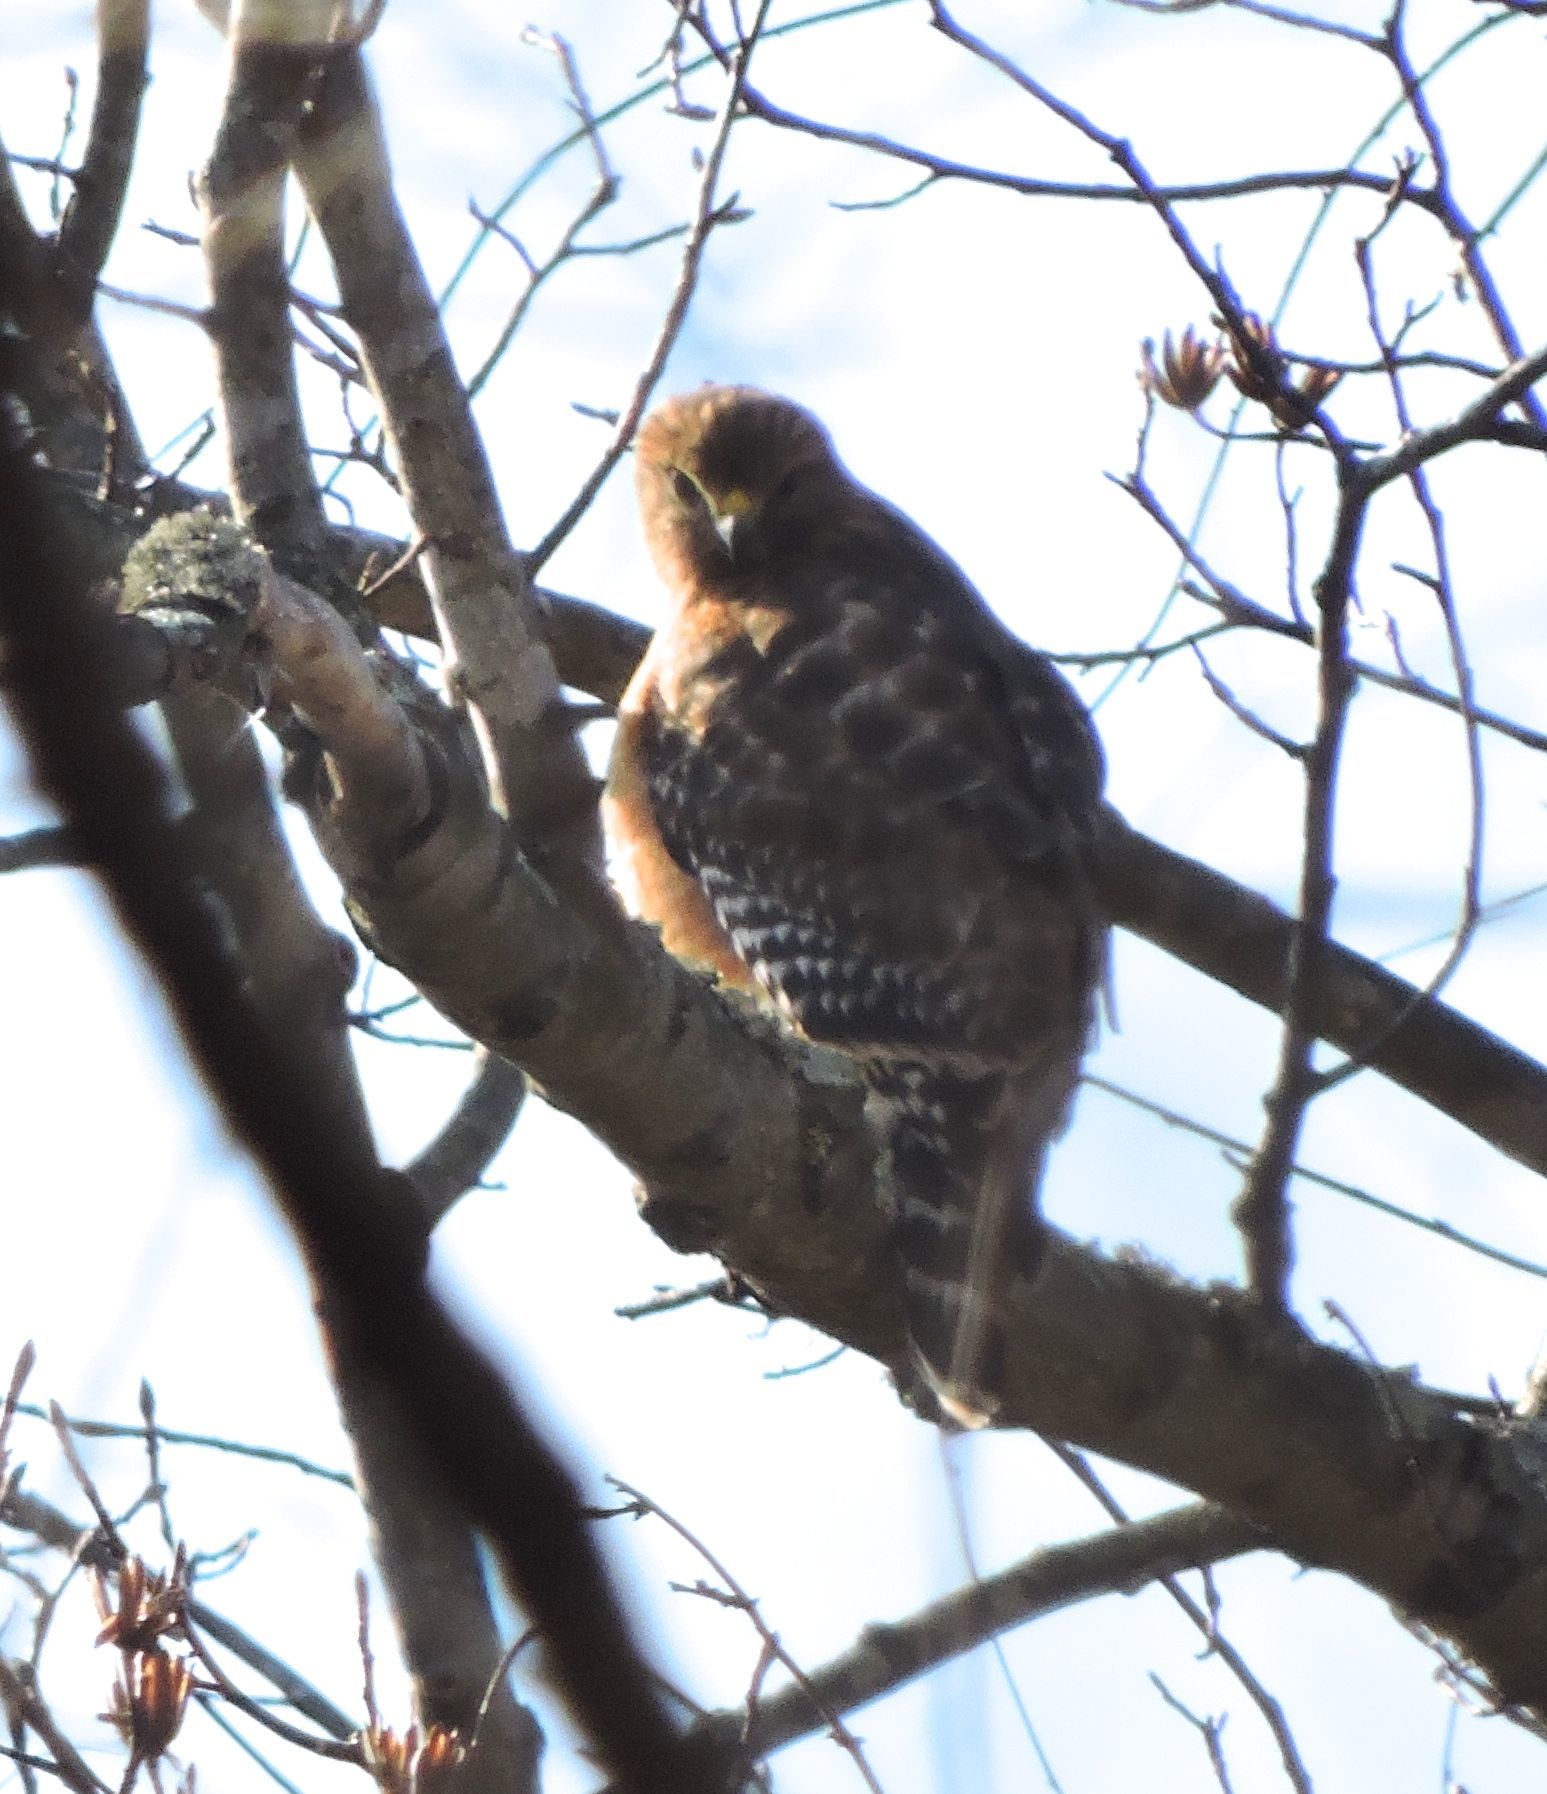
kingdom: Animalia
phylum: Chordata
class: Aves
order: Accipitriformes
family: Accipitridae
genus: Buteo
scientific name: Buteo lineatus
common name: Red-shouldered hawk
